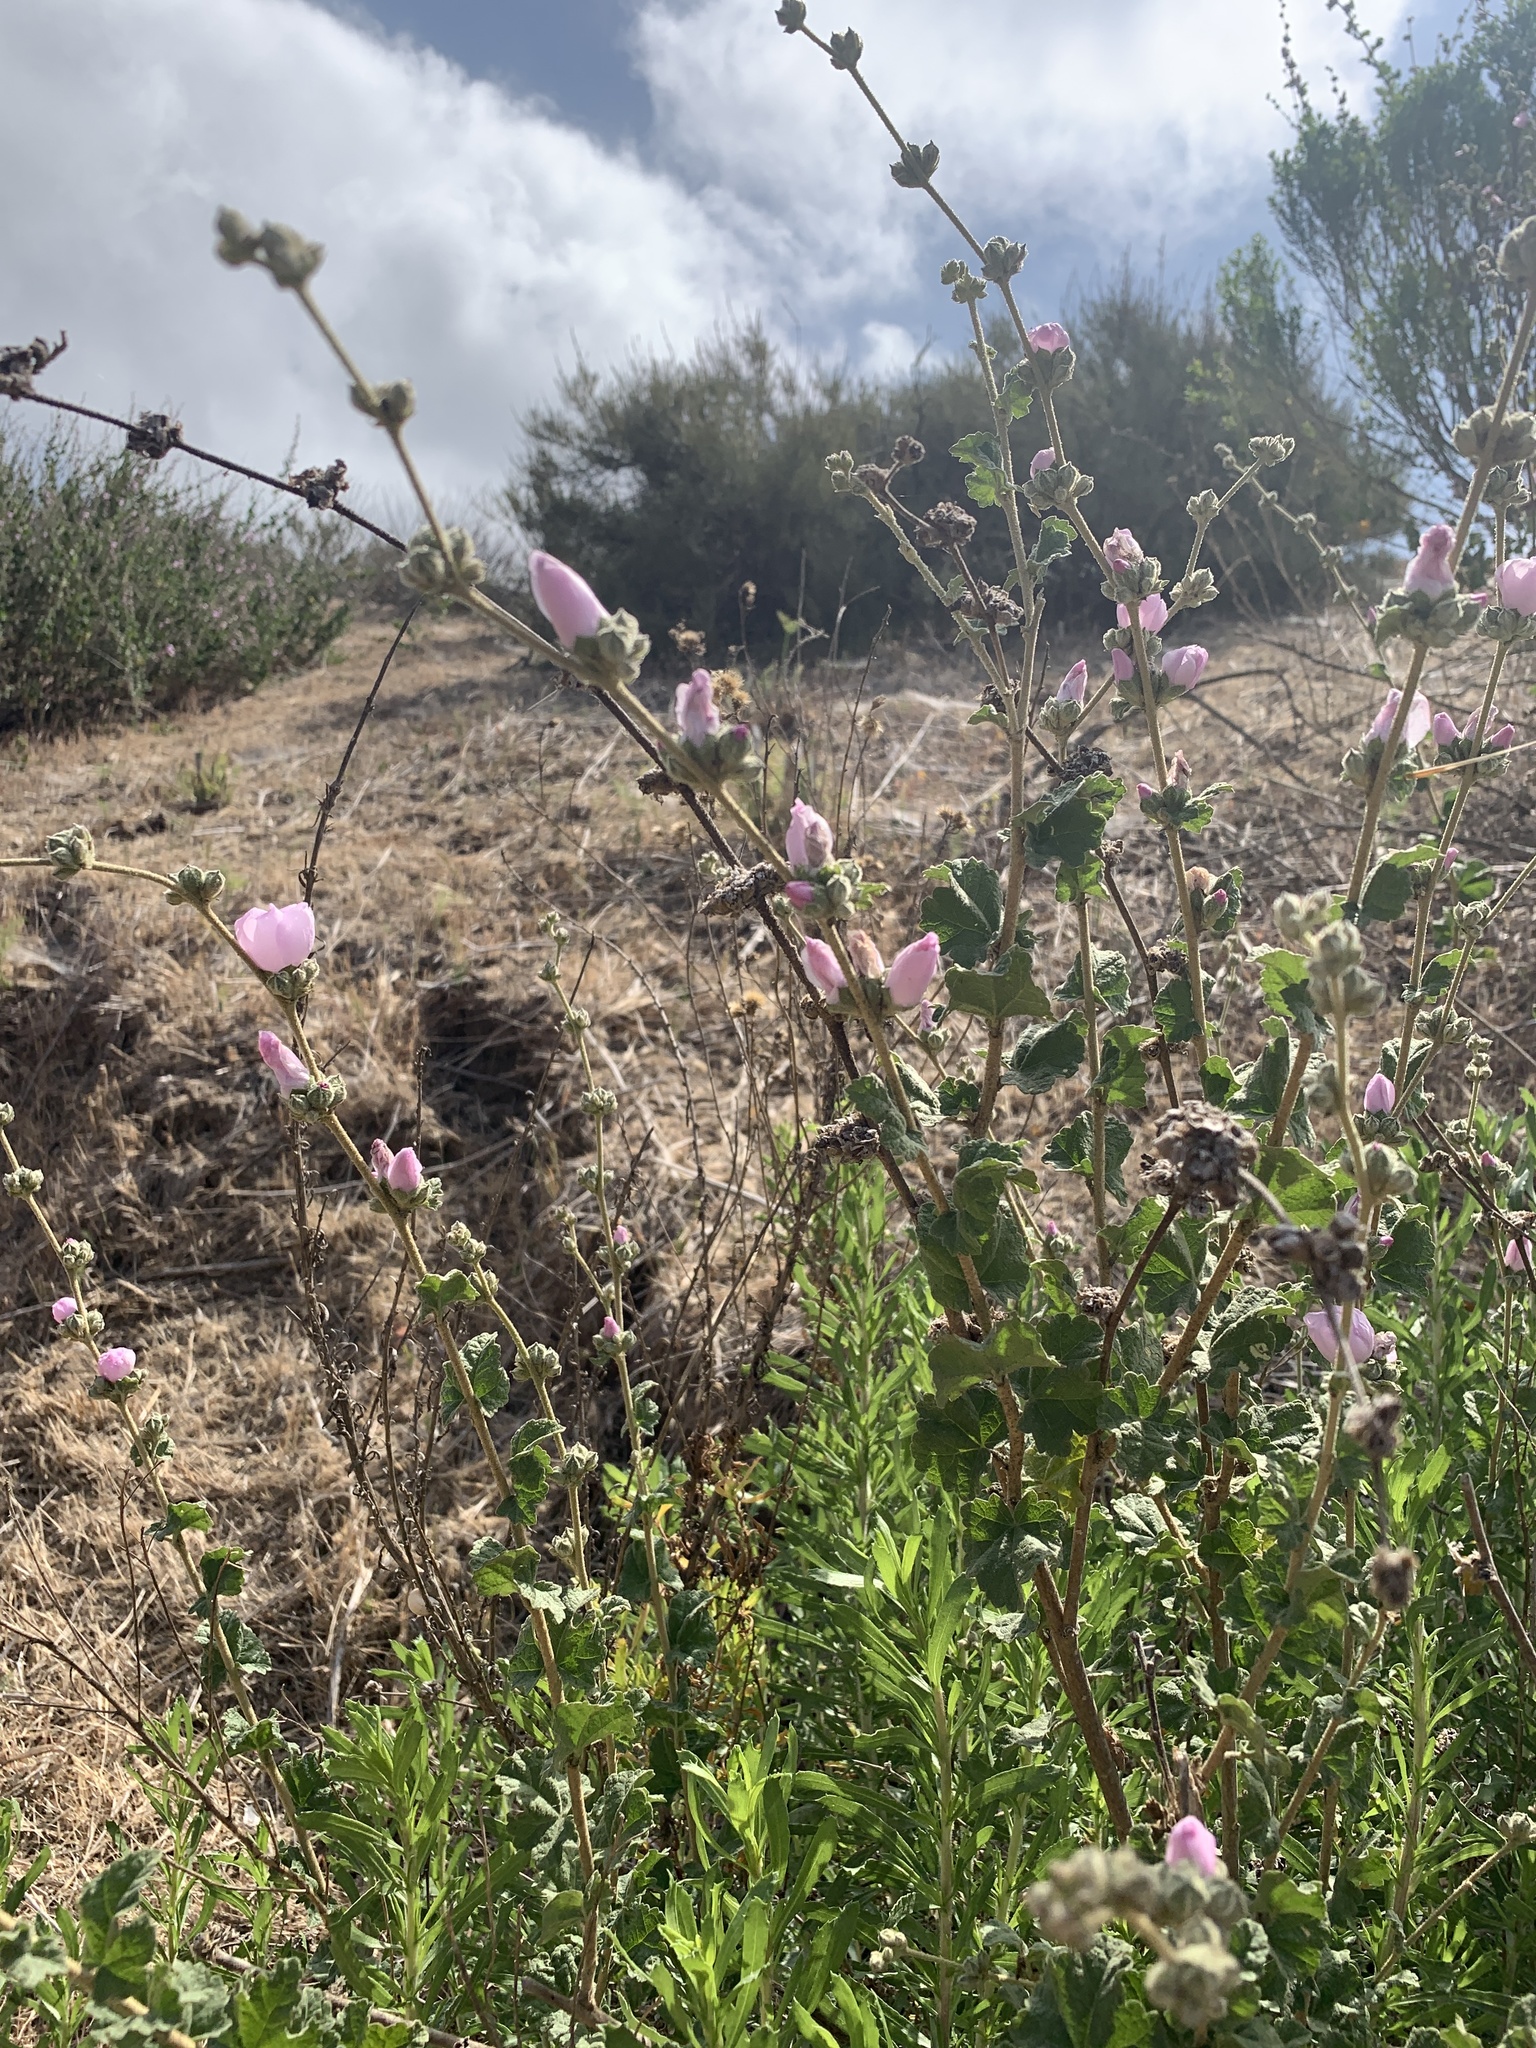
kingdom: Plantae
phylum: Tracheophyta
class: Magnoliopsida
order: Malvales
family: Malvaceae
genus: Malacothamnus
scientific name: Malacothamnus fasciculatus
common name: Sant cruz island bush-mallow
